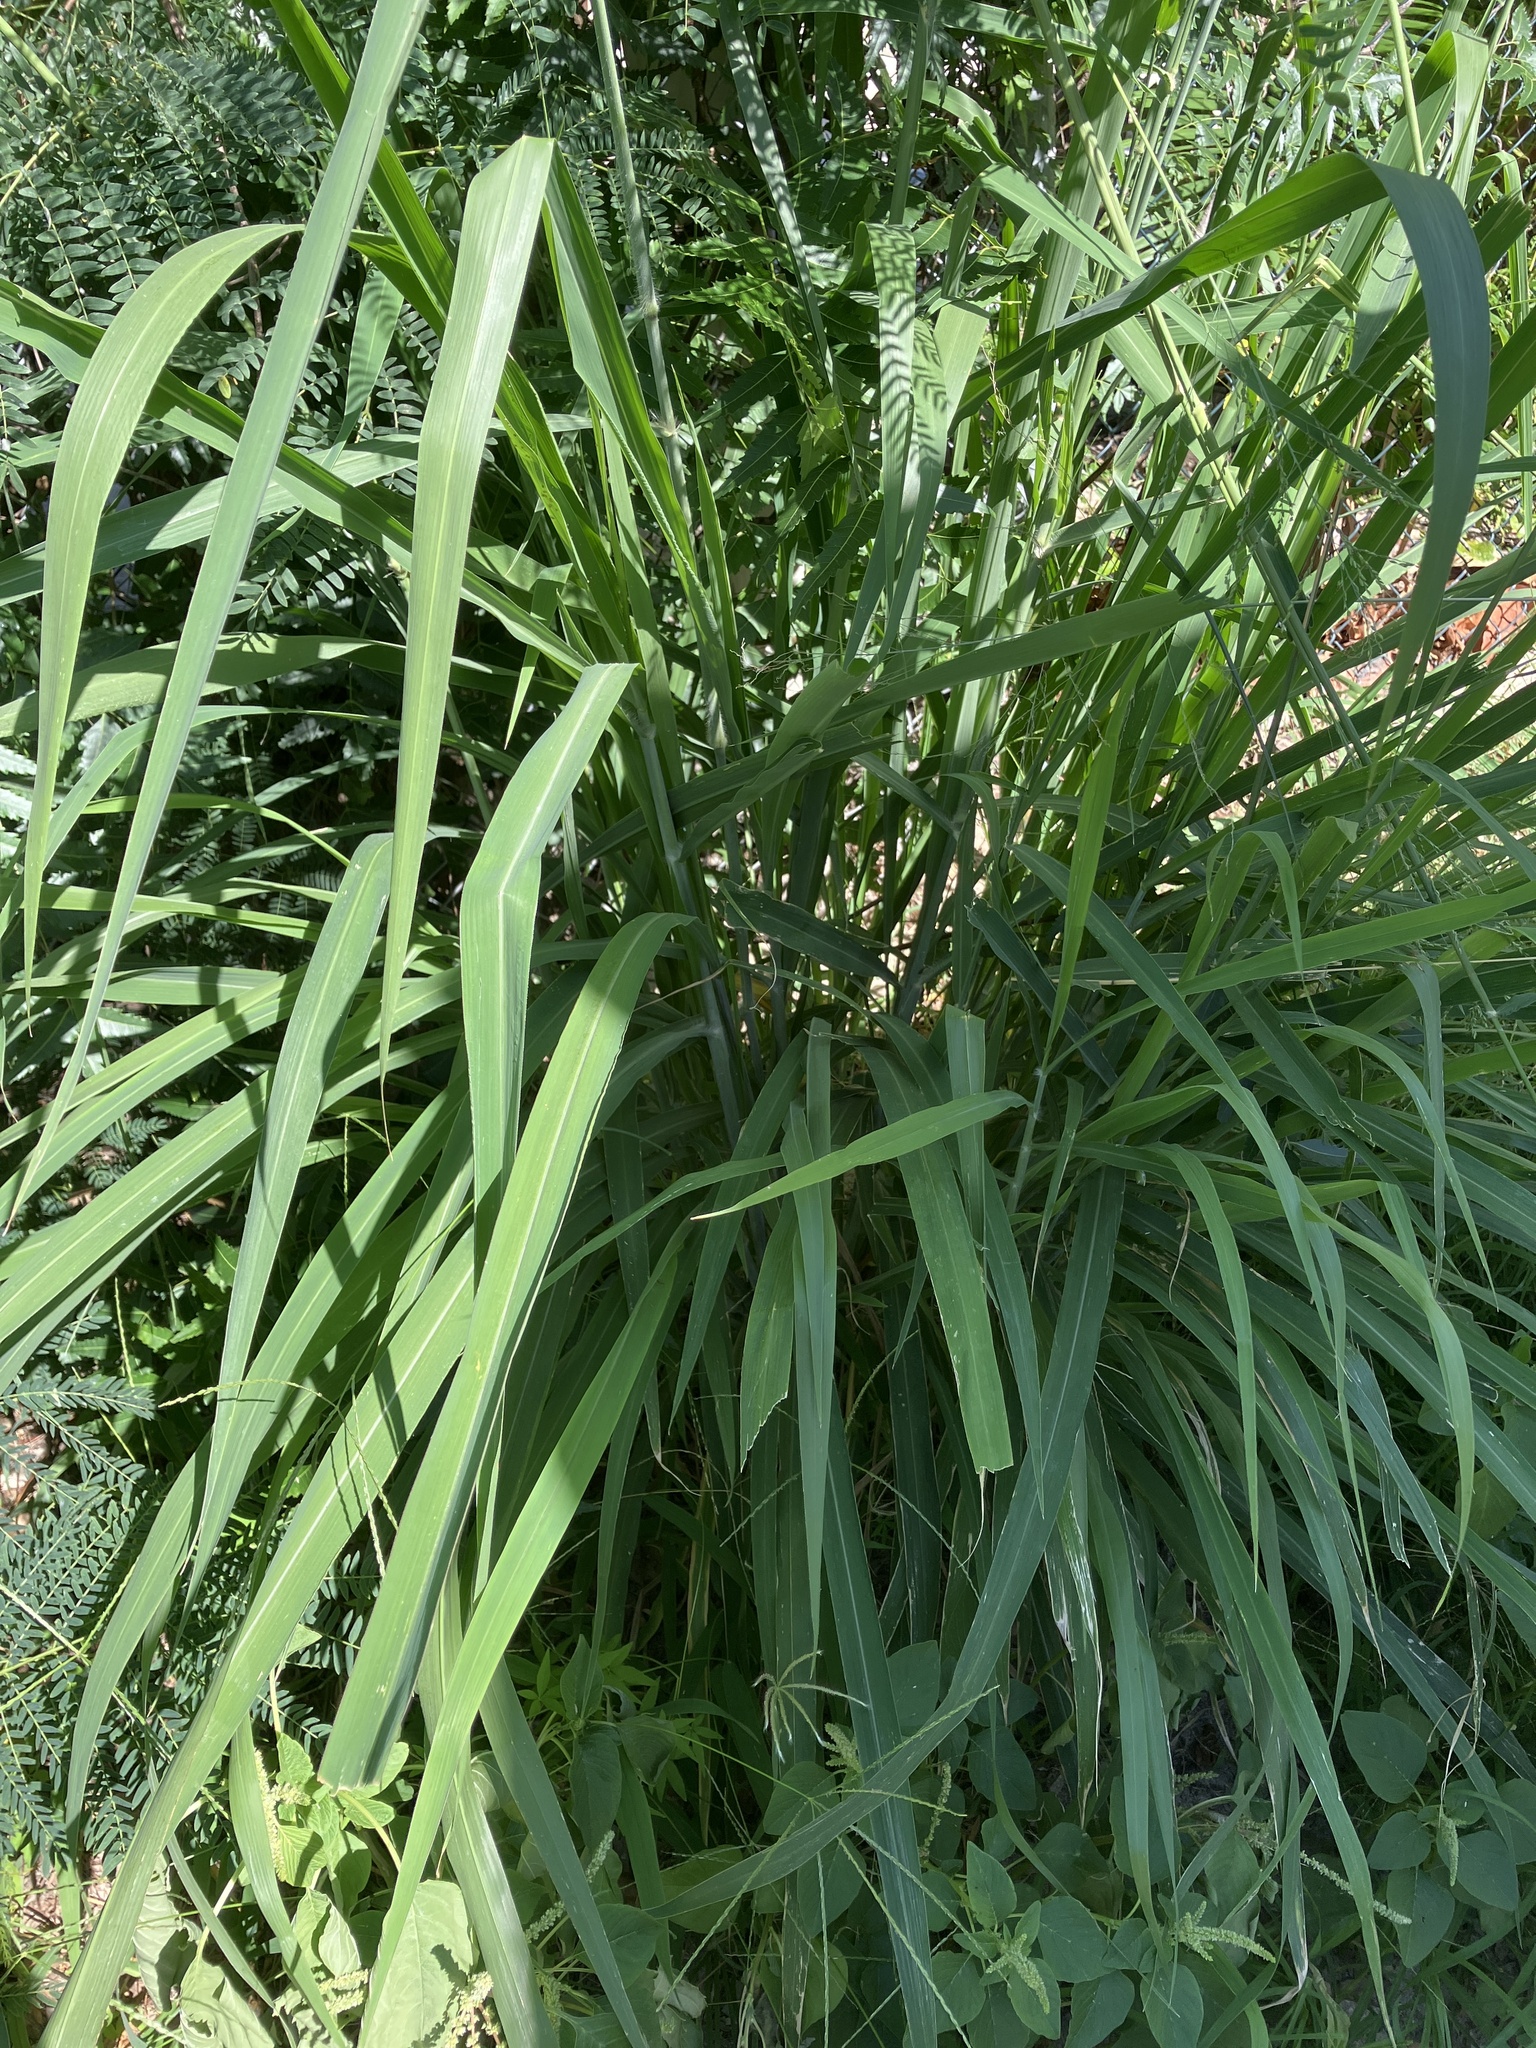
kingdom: Plantae
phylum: Tracheophyta
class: Liliopsida
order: Poales
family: Poaceae
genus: Megathyrsus
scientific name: Megathyrsus maximus
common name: Guineagrass
